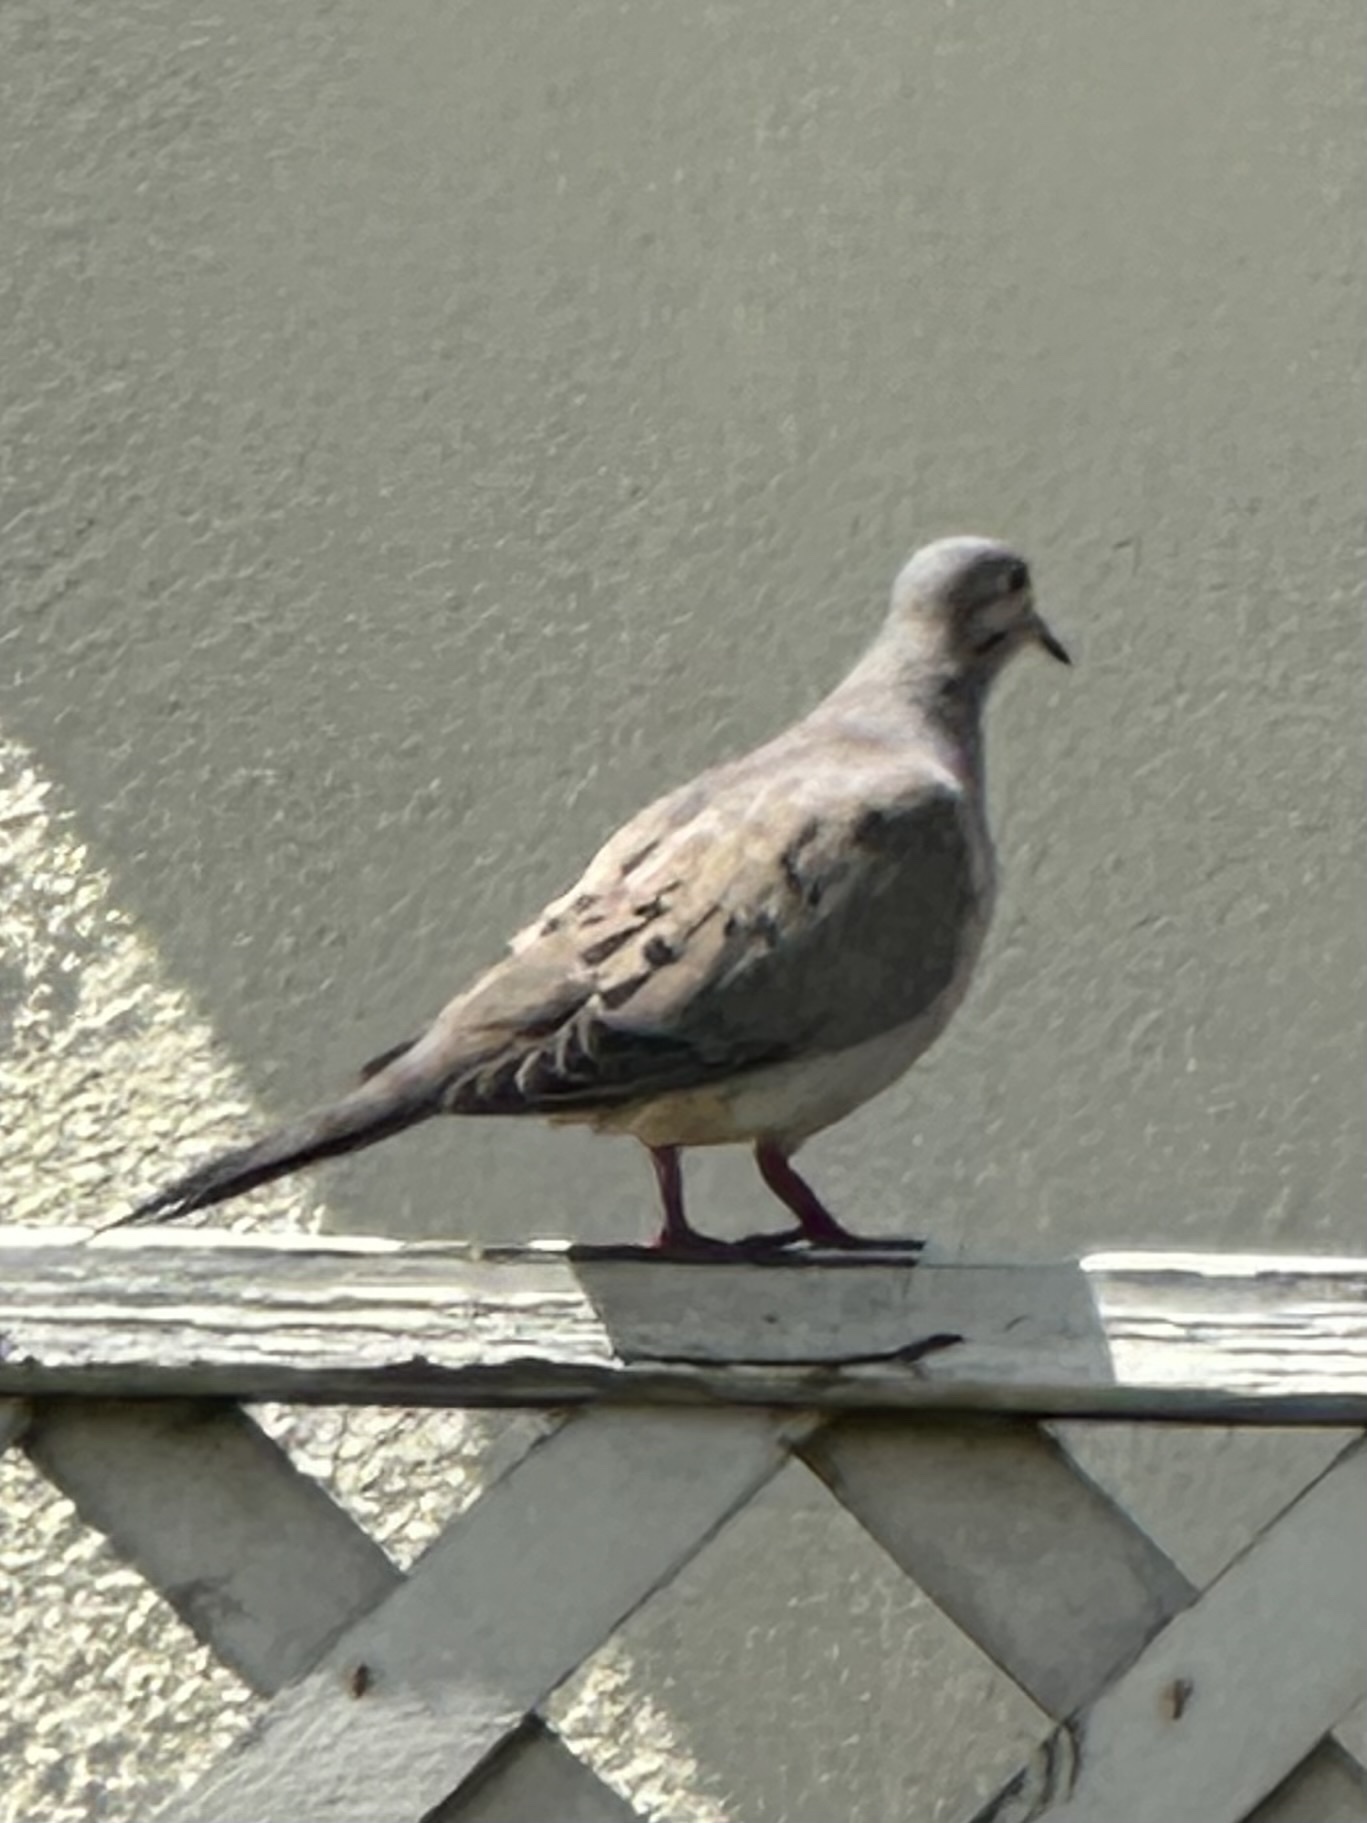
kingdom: Animalia
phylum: Chordata
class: Aves
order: Columbiformes
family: Columbidae
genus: Zenaida
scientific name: Zenaida macroura
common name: Mourning dove
